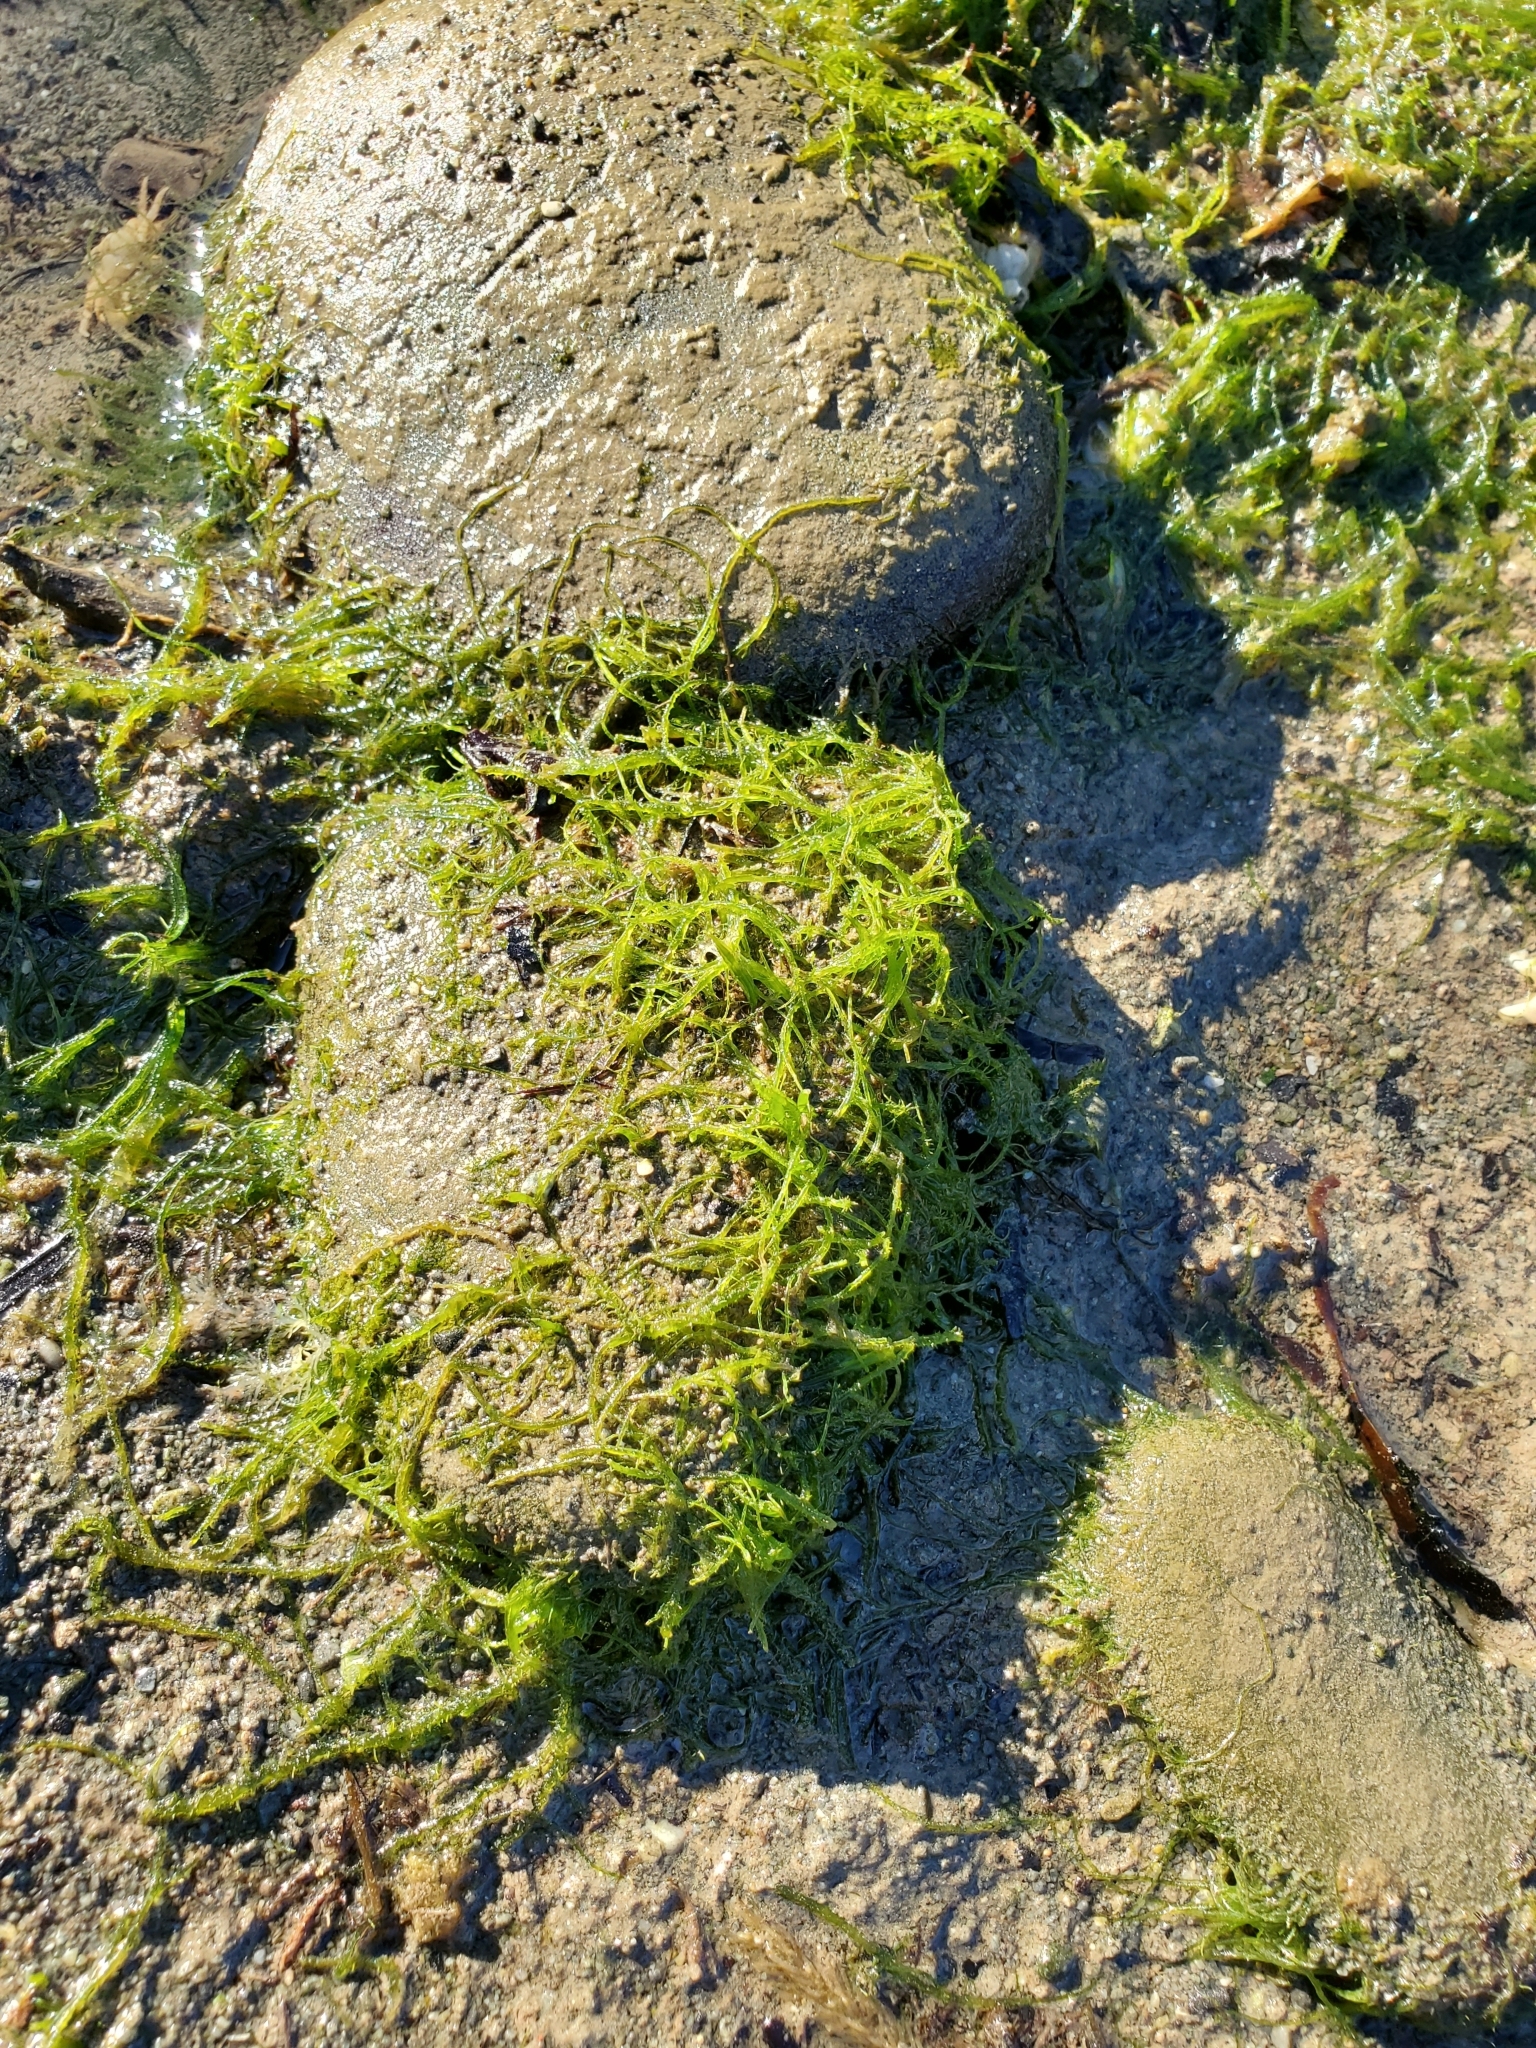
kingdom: Plantae
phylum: Chlorophyta
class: Ulvophyceae
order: Ulvales
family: Ulvaceae
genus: Ulva
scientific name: Ulva intestinalis
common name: Gut weed
